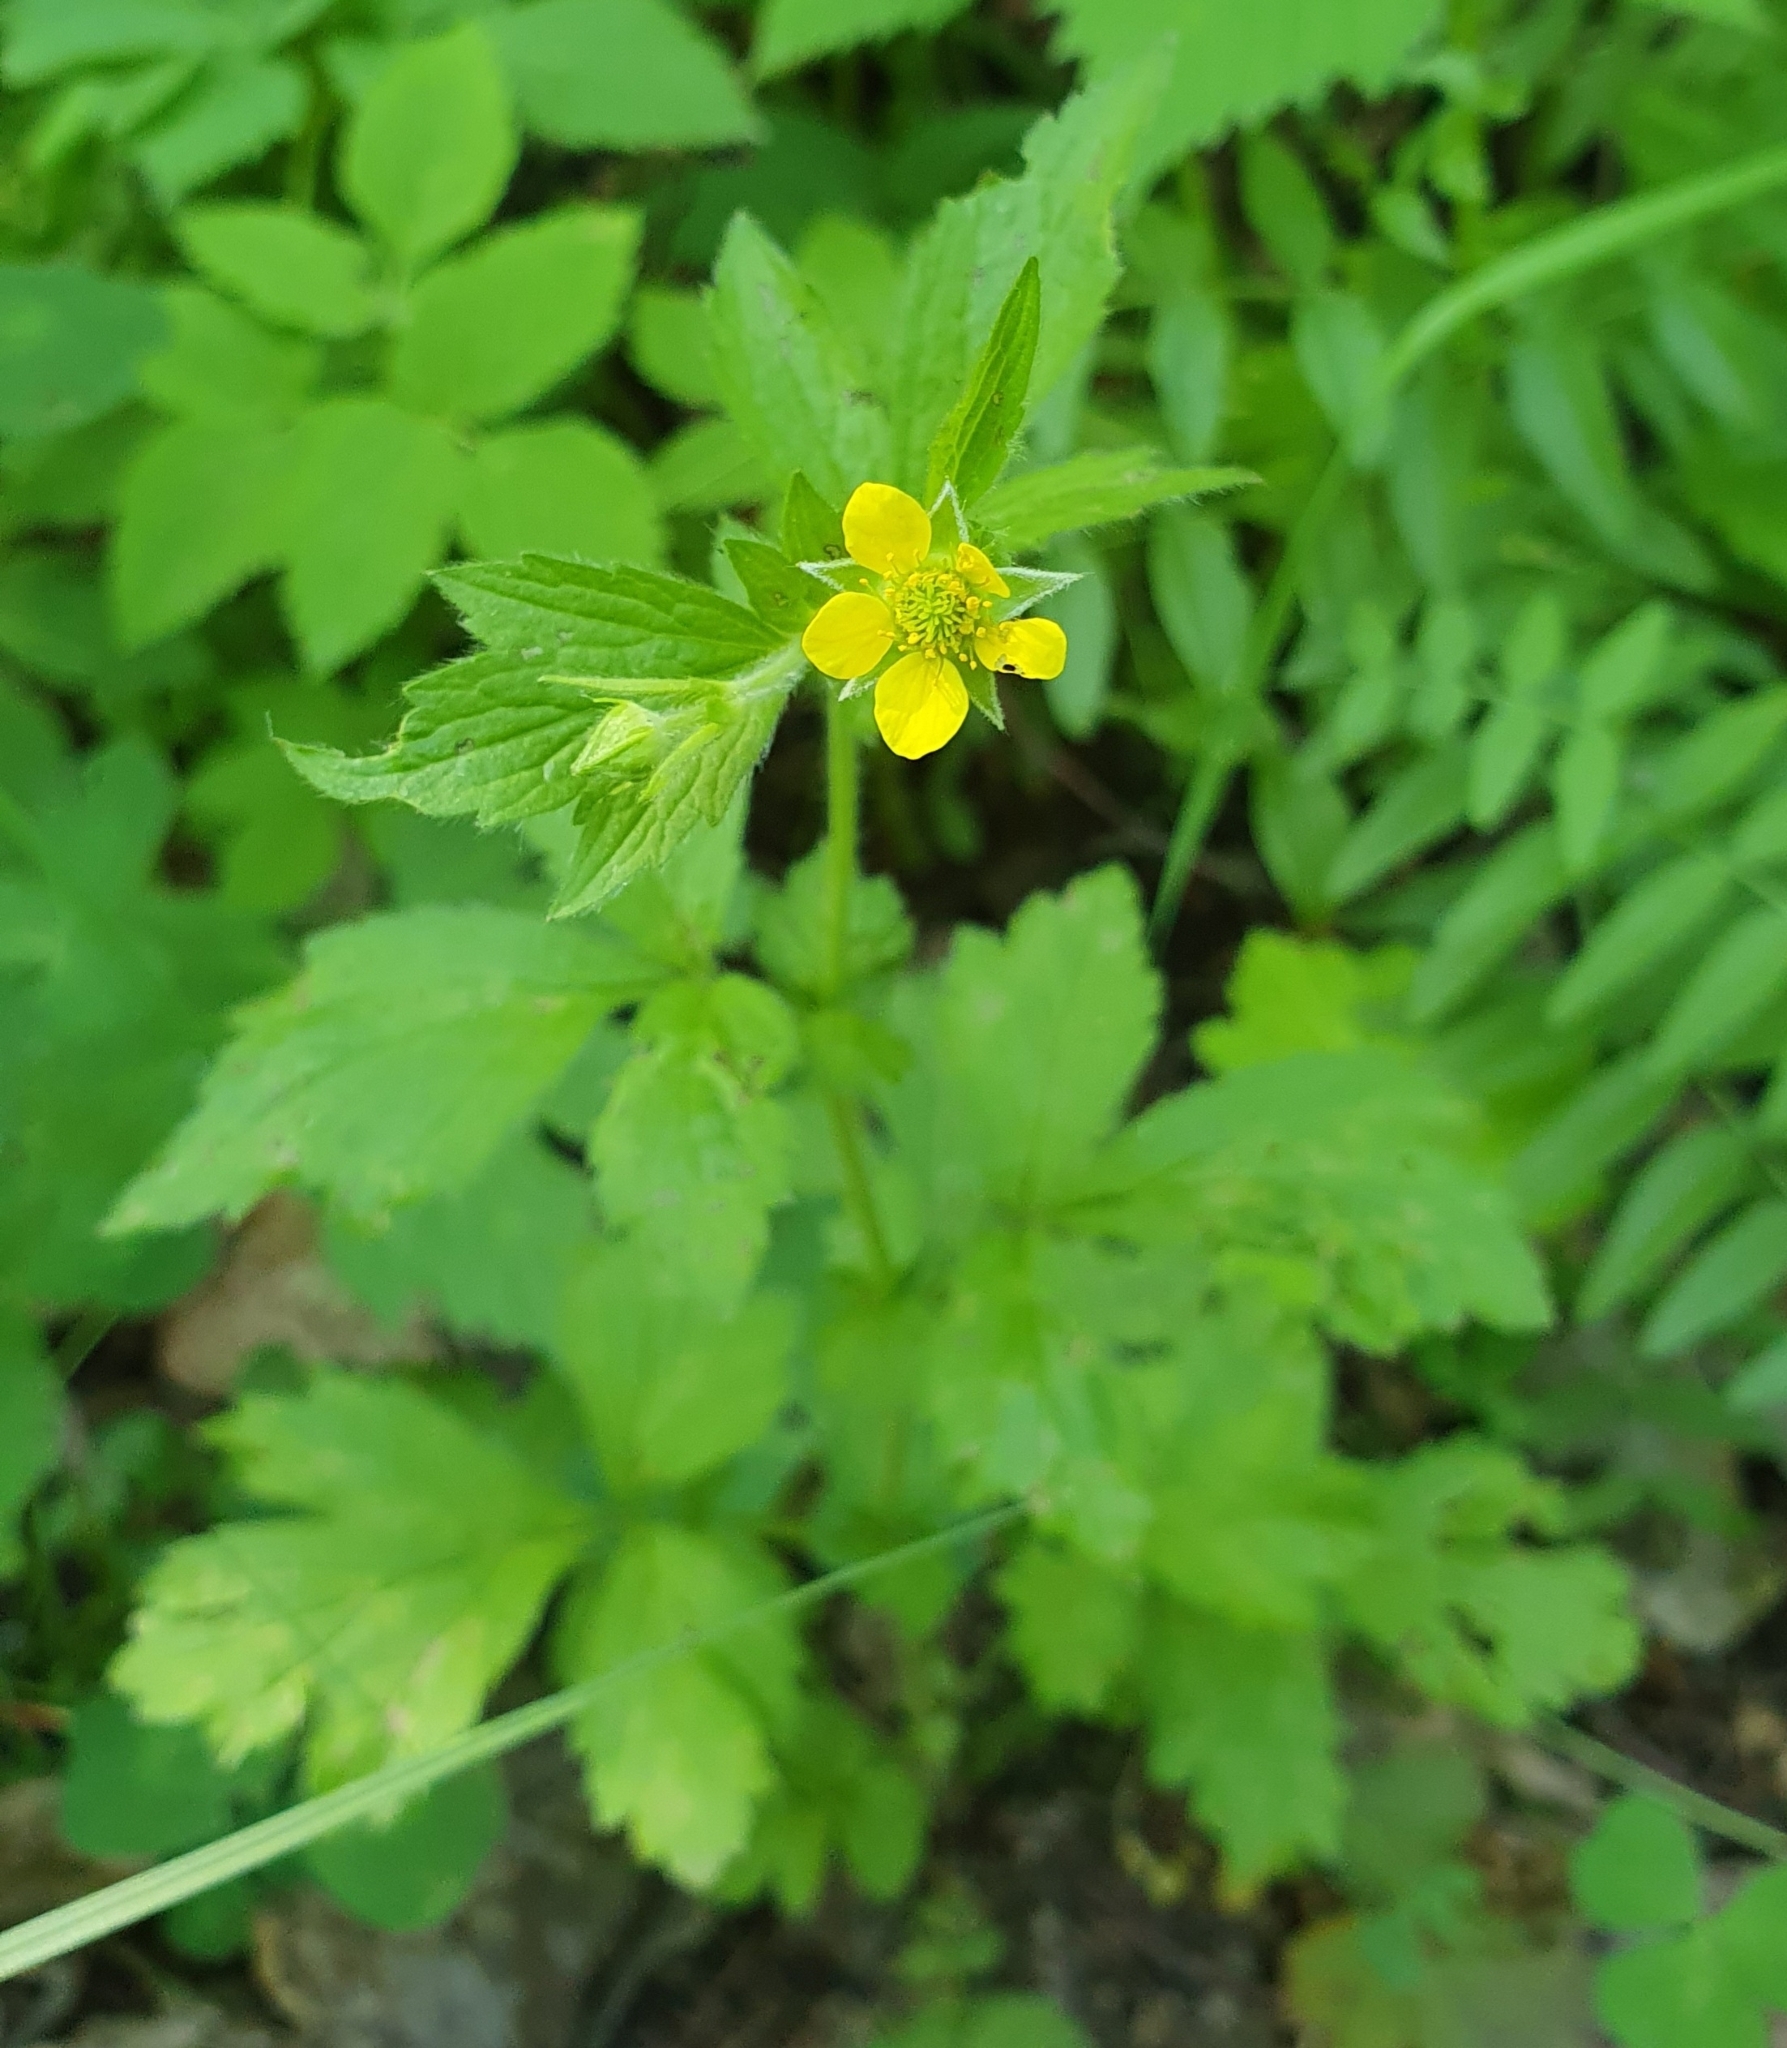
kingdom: Plantae
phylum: Tracheophyta
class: Magnoliopsida
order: Rosales
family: Rosaceae
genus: Geum
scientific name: Geum urbanum
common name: Wood avens
